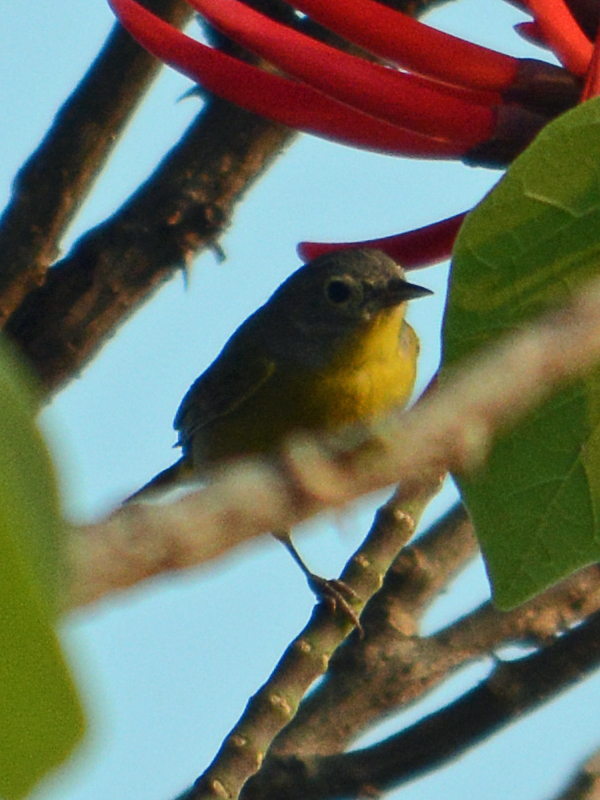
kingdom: Animalia
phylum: Chordata
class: Aves
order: Passeriformes
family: Parulidae
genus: Leiothlypis
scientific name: Leiothlypis ruficapilla
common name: Nashville warbler
